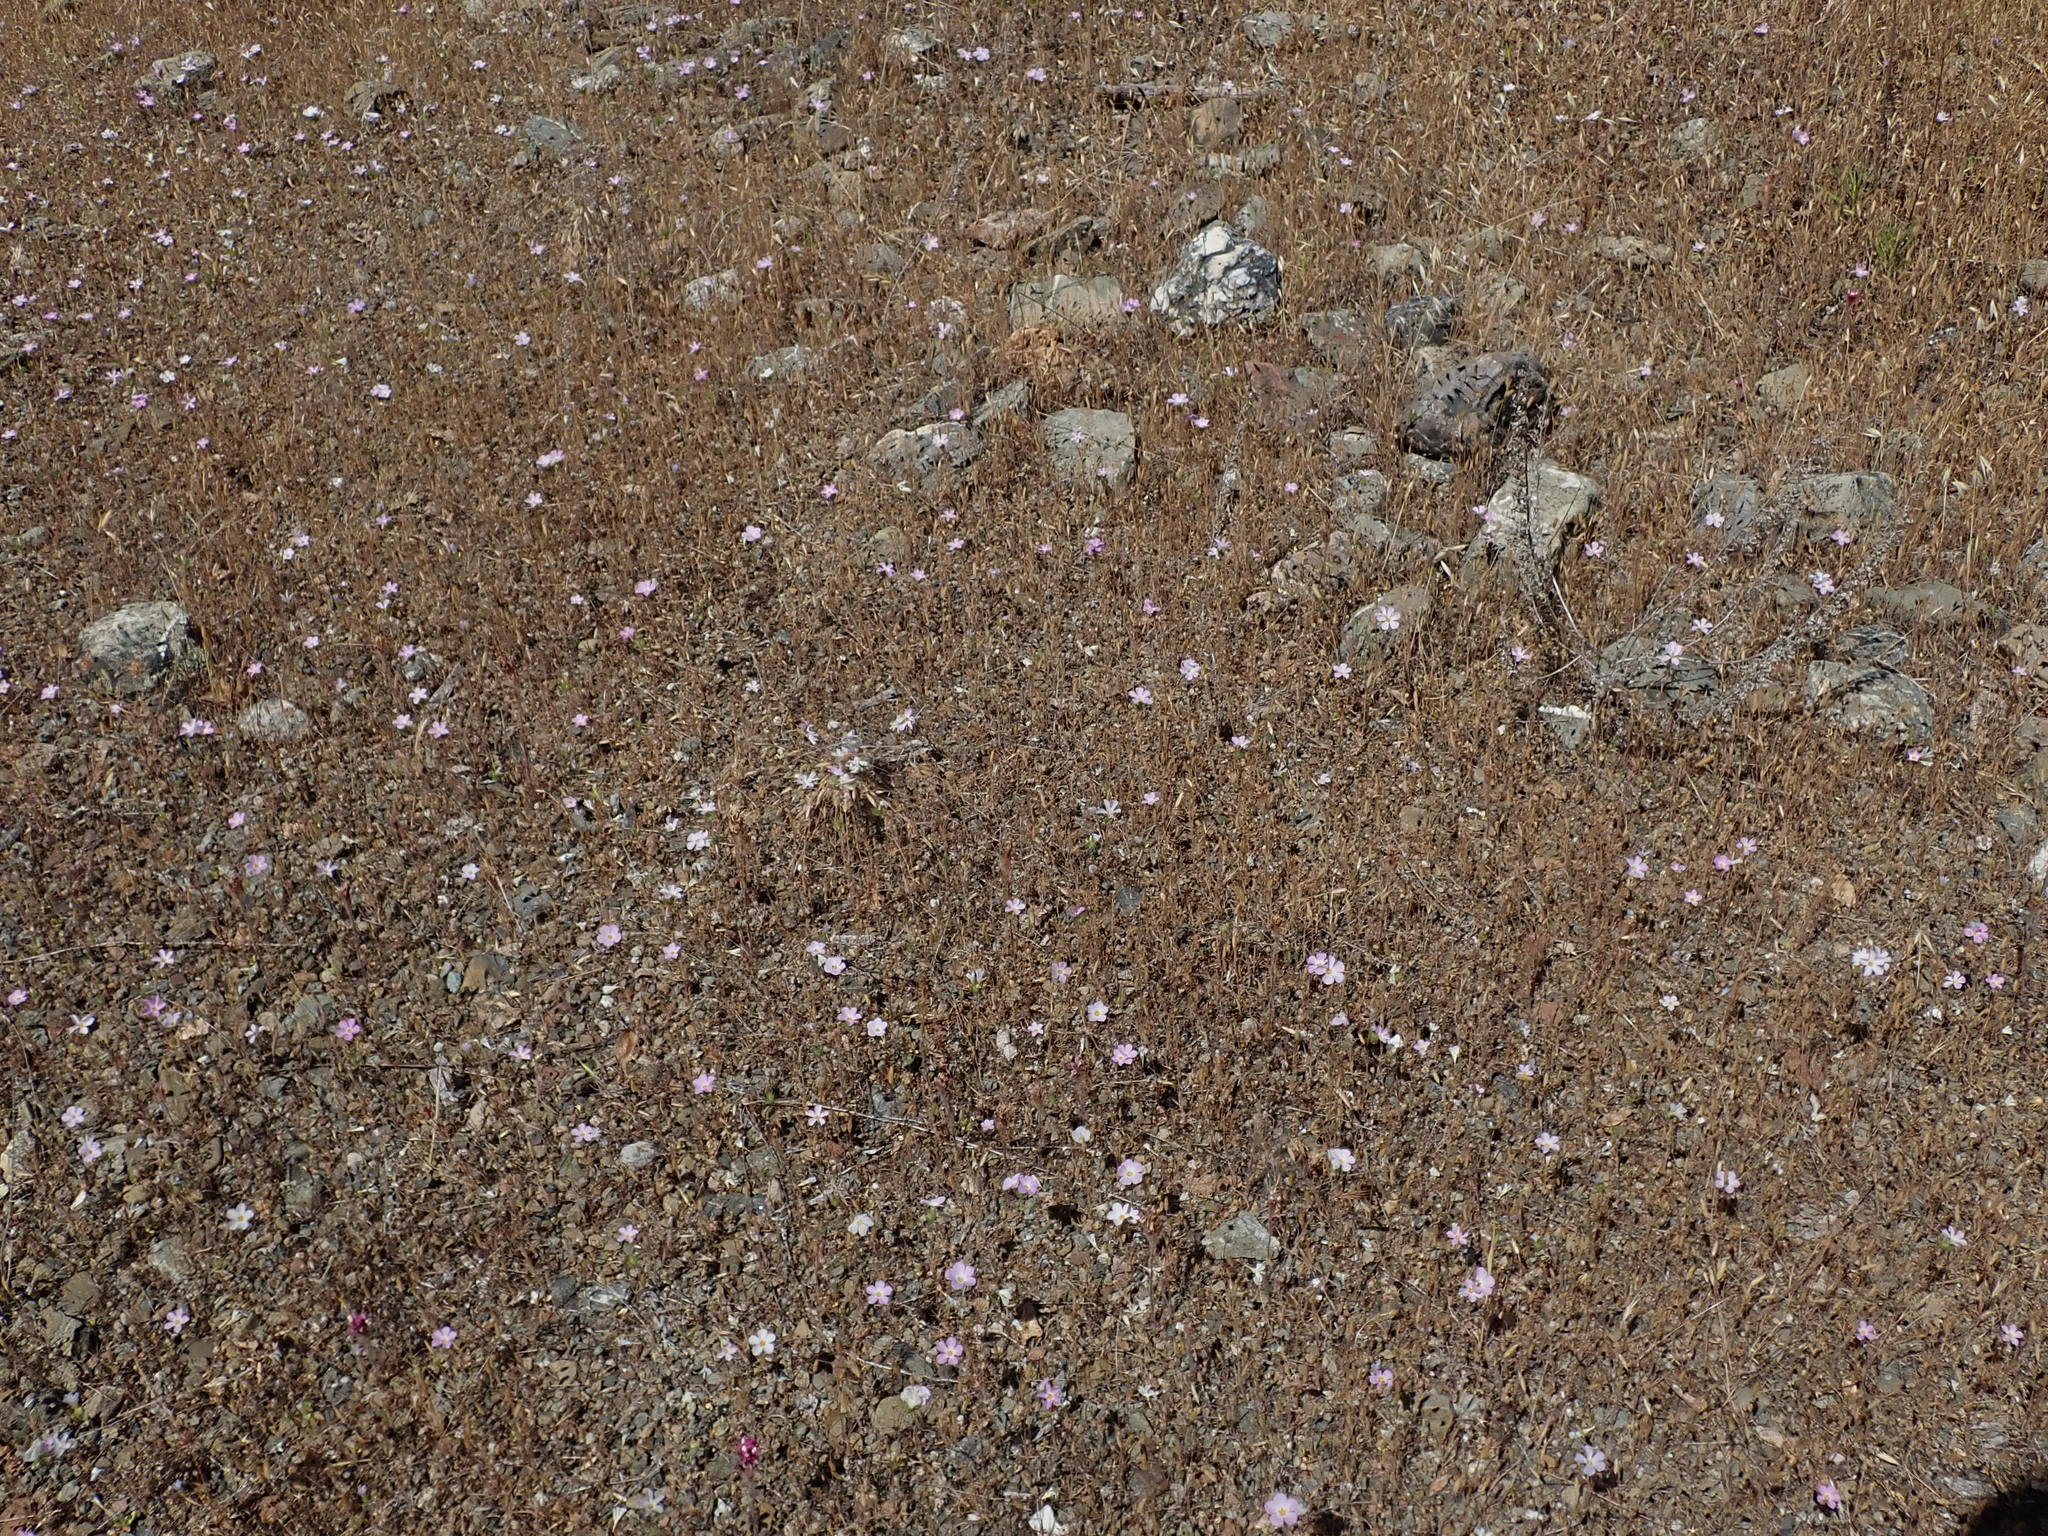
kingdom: Plantae
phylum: Tracheophyta
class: Magnoliopsida
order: Ericales
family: Polemoniaceae
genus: Leptosiphon
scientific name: Leptosiphon grandiflorus
